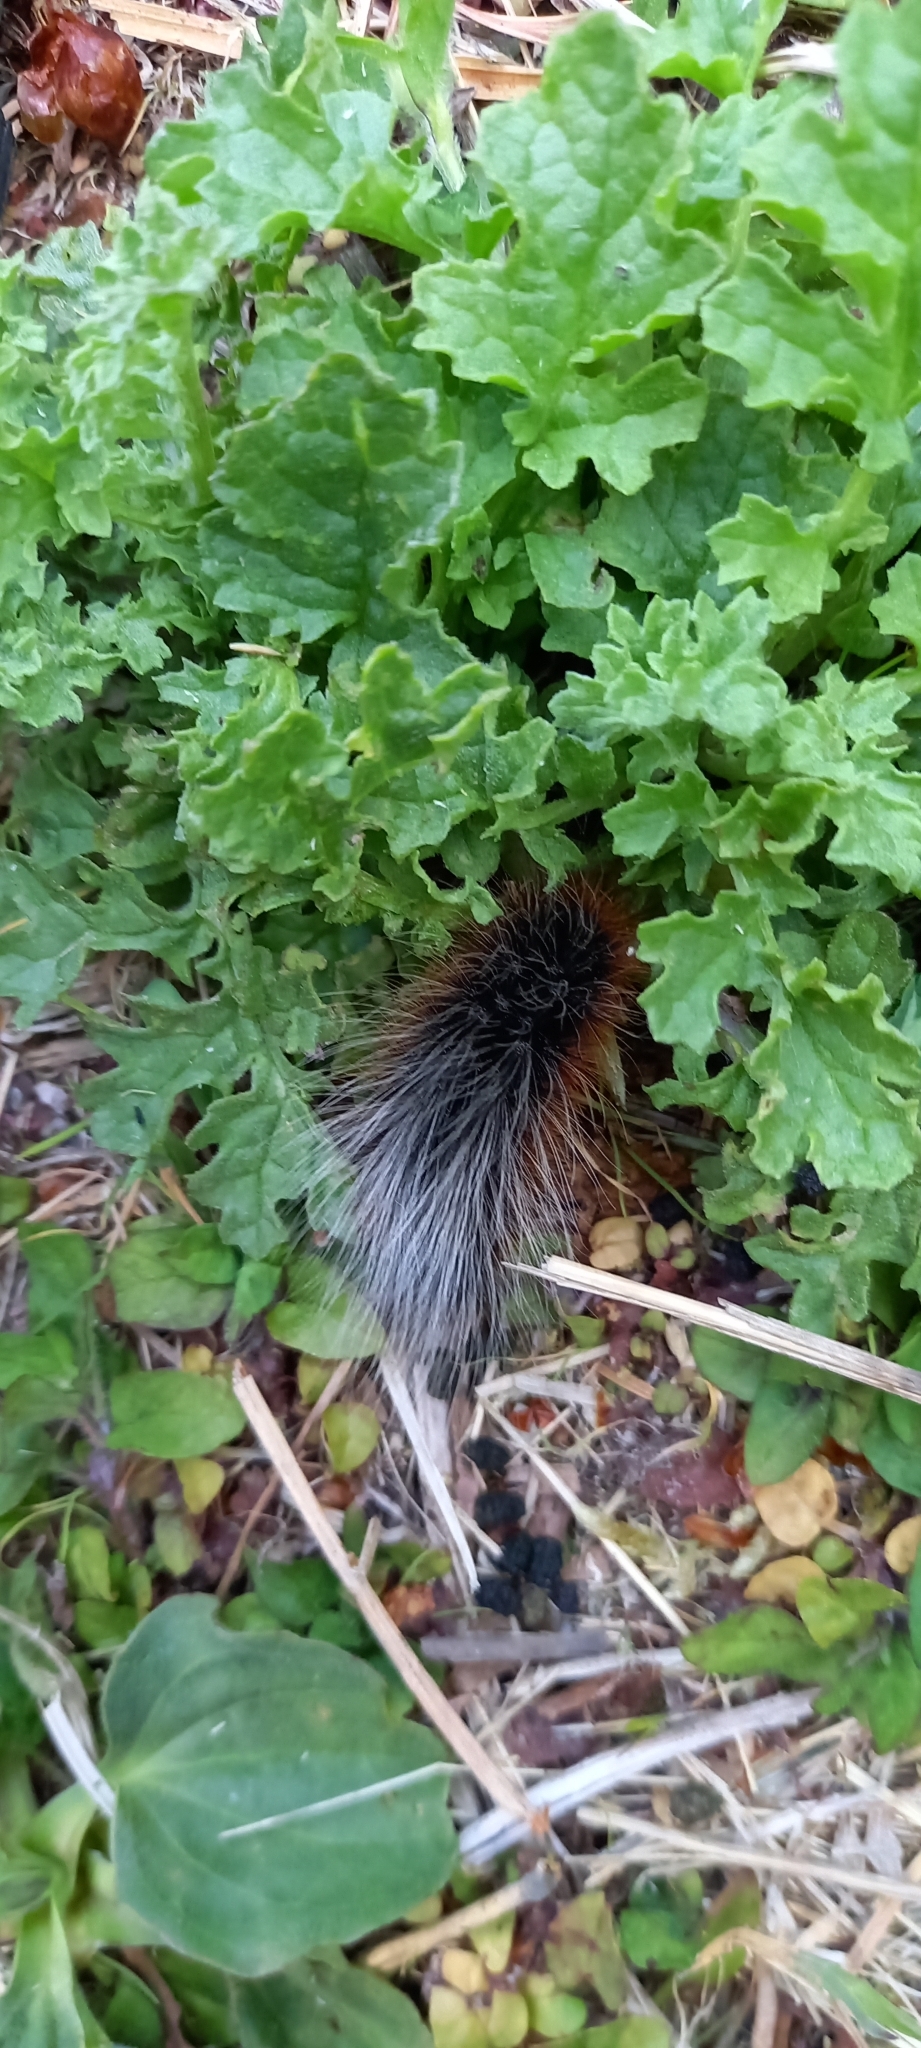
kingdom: Animalia
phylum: Arthropoda
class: Insecta
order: Lepidoptera
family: Erebidae
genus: Arctia
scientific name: Arctia caja
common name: Garden tiger
